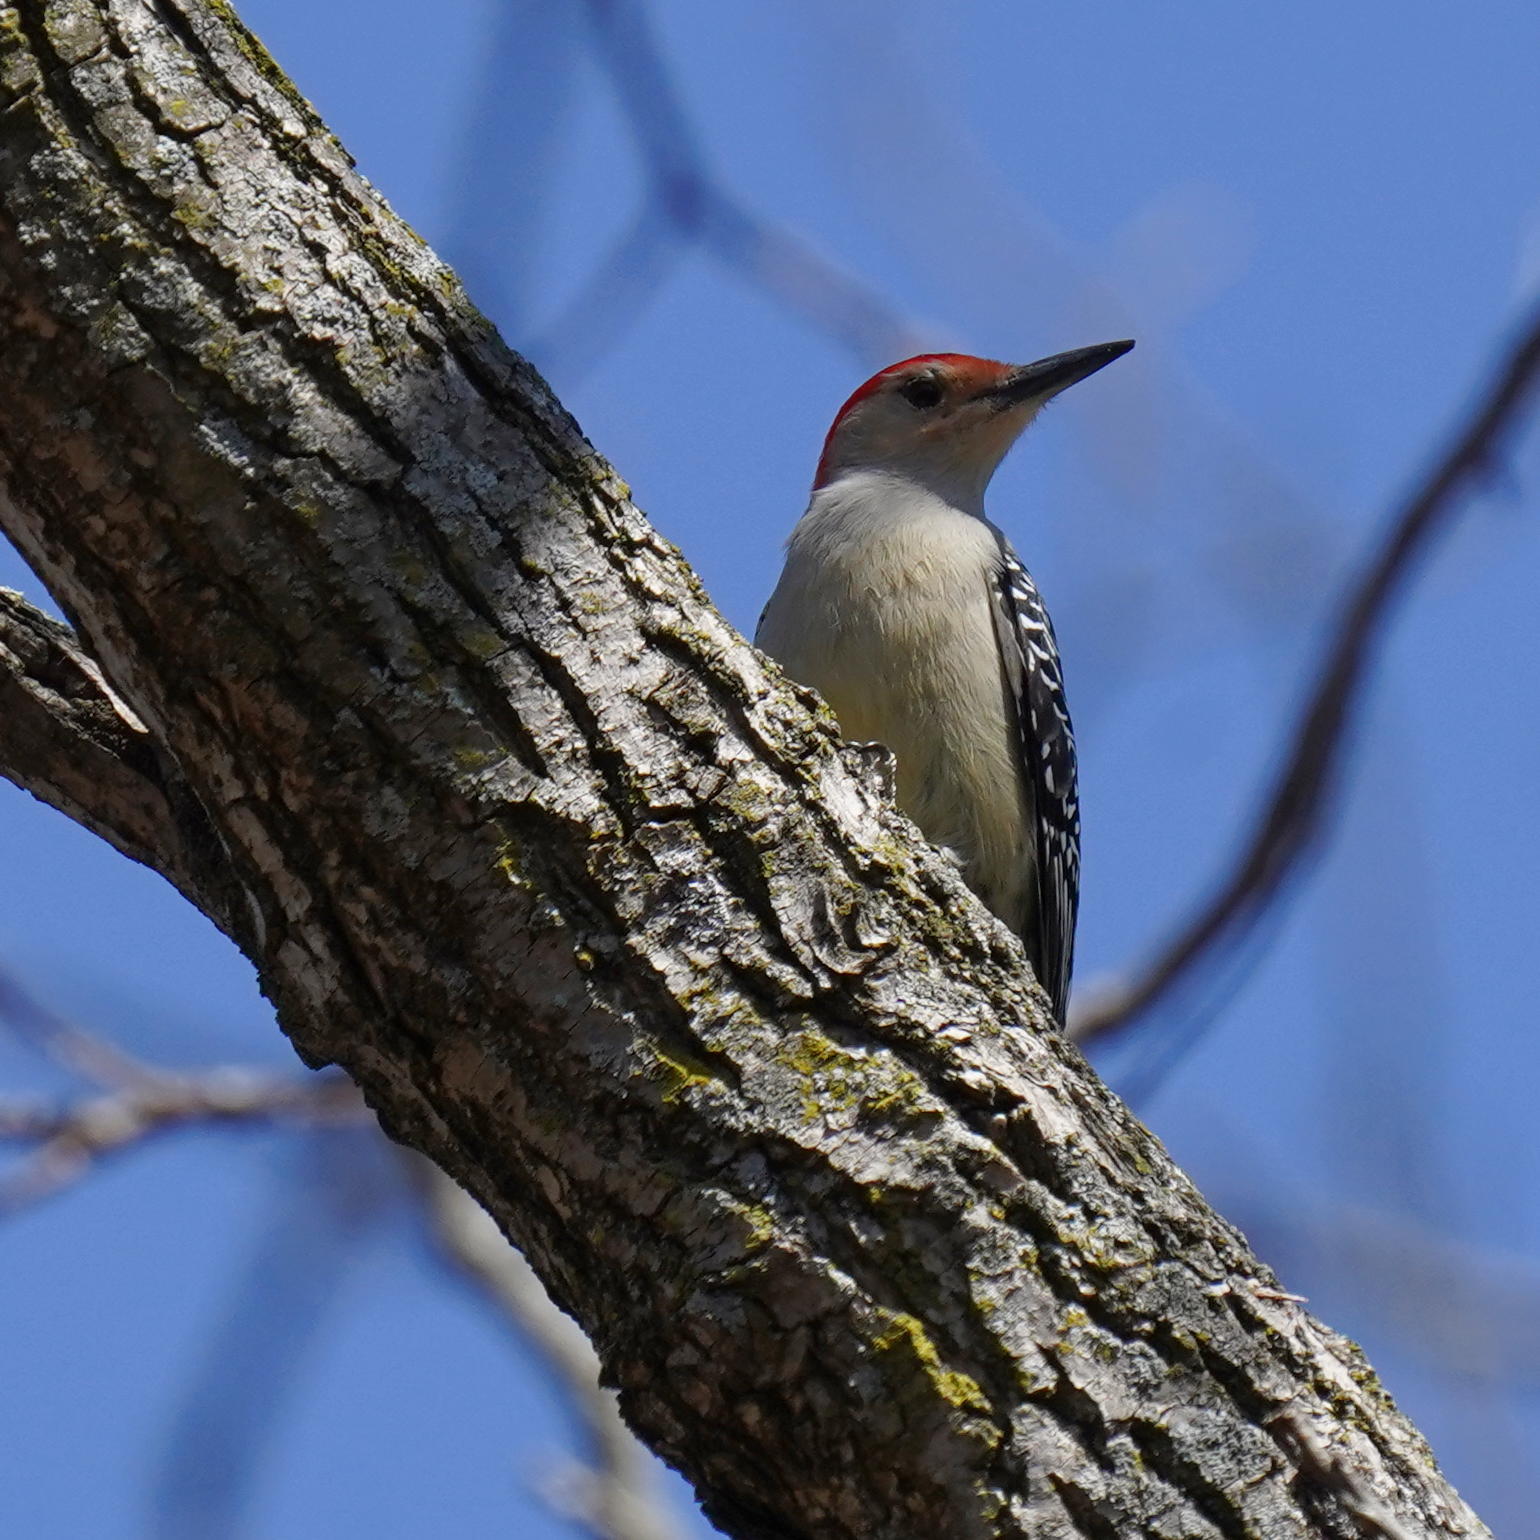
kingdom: Animalia
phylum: Chordata
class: Aves
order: Piciformes
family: Picidae
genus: Melanerpes
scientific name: Melanerpes carolinus
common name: Red-bellied woodpecker
